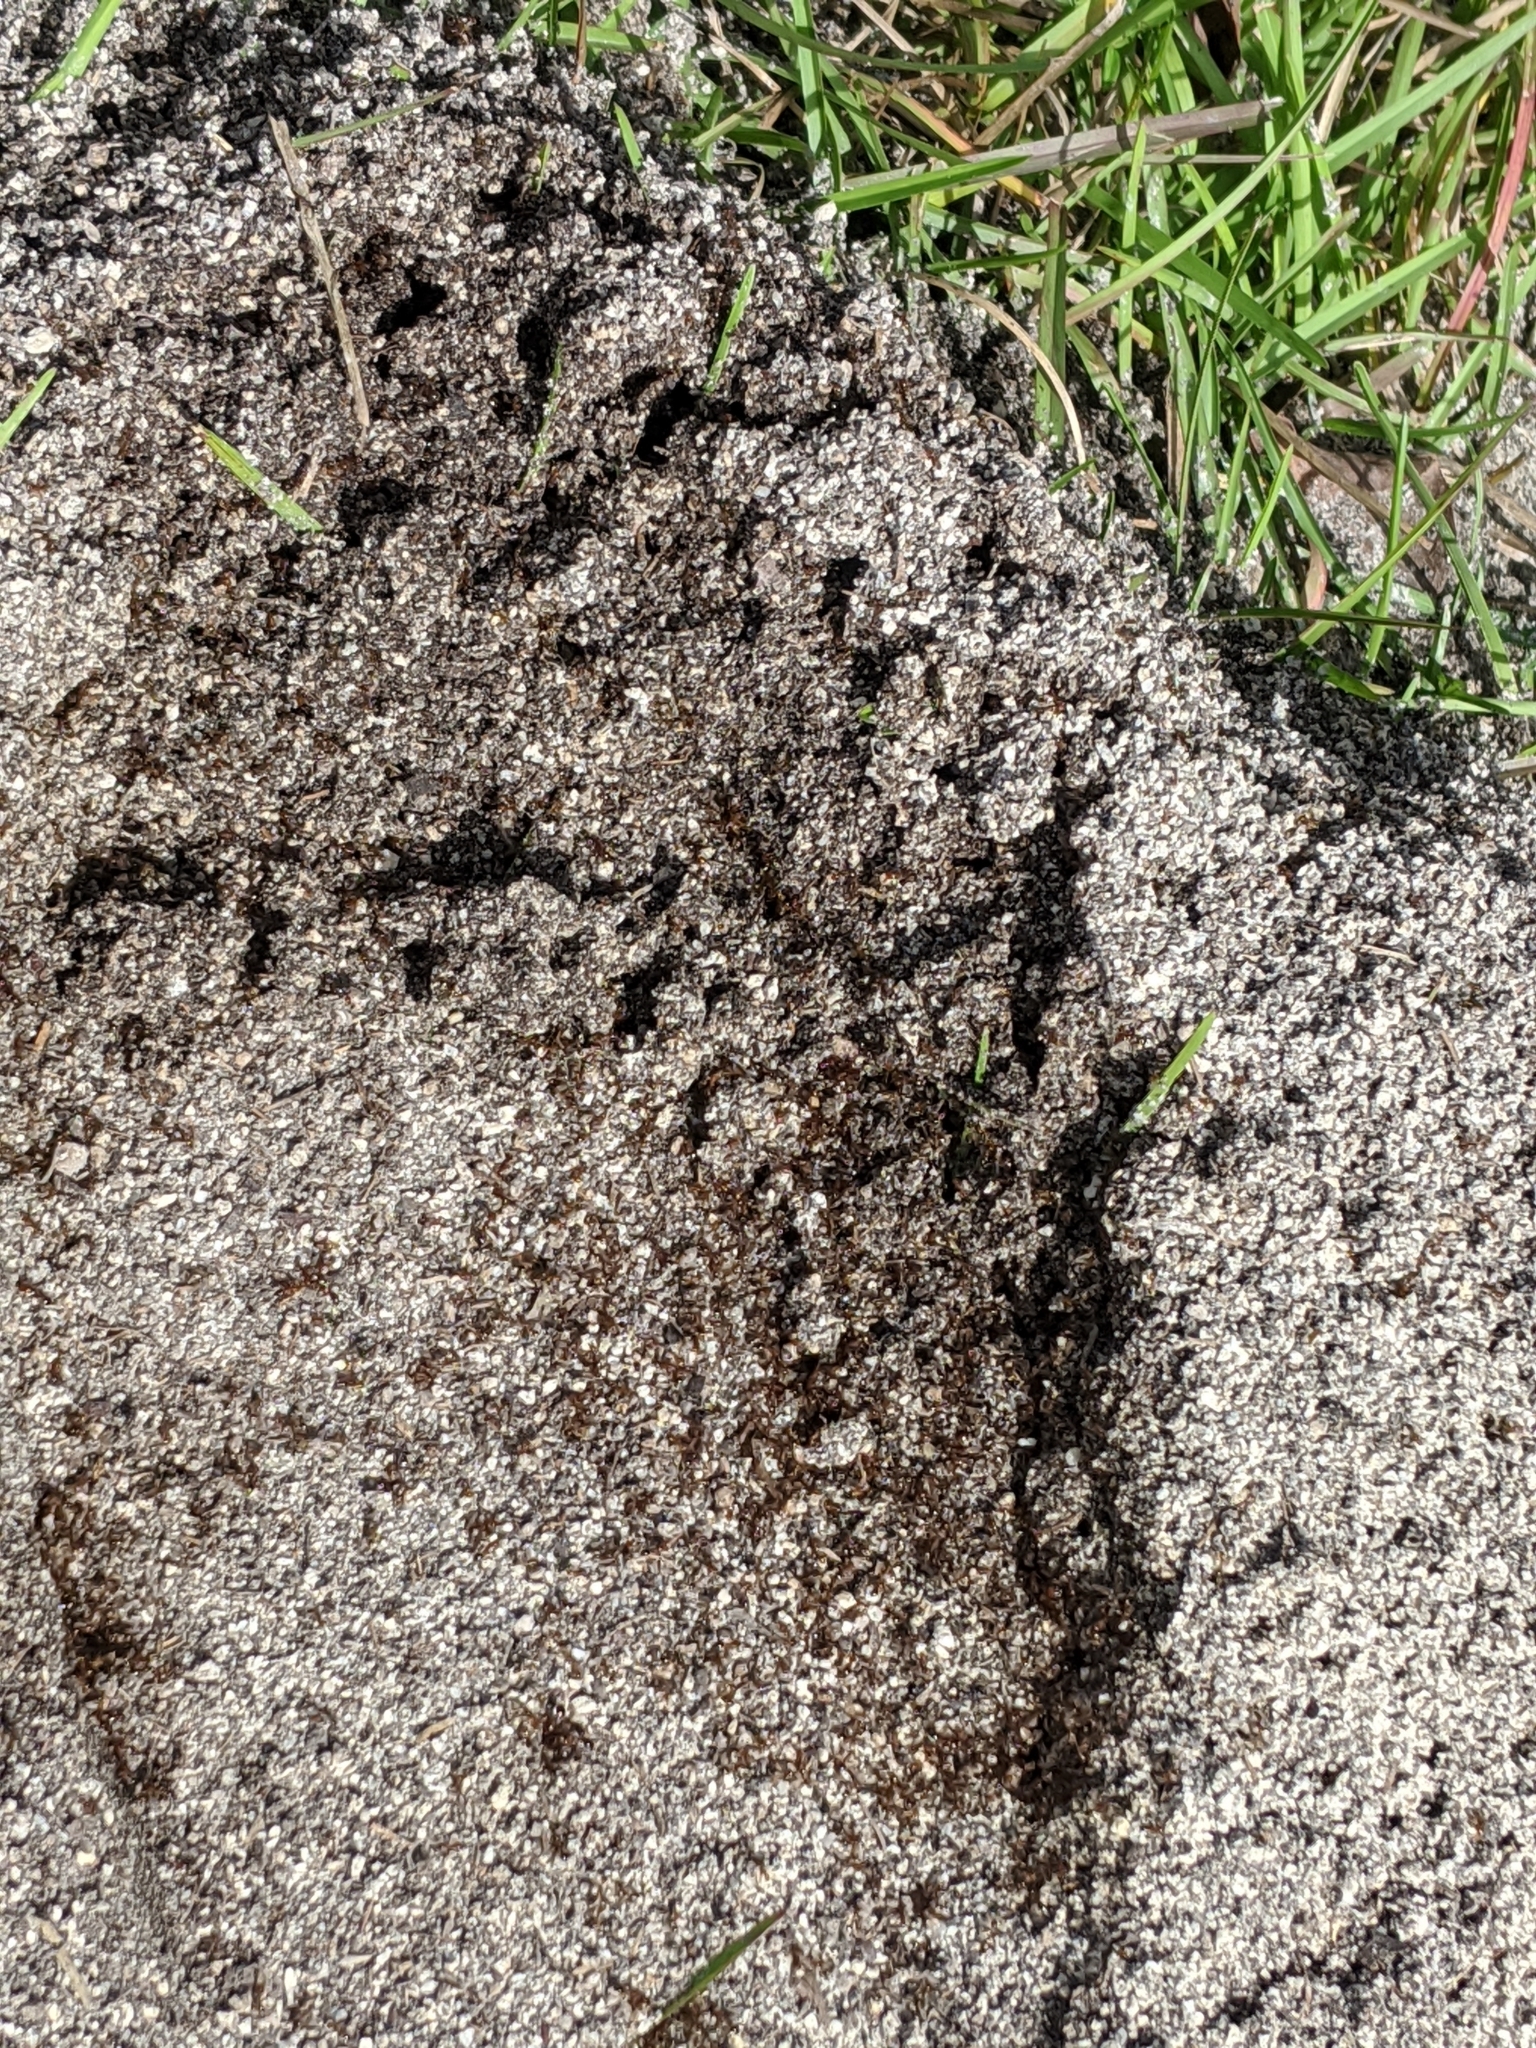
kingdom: Animalia
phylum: Arthropoda
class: Insecta
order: Hymenoptera
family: Formicidae
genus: Solenopsis
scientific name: Solenopsis invicta
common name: Red imported fire ant
